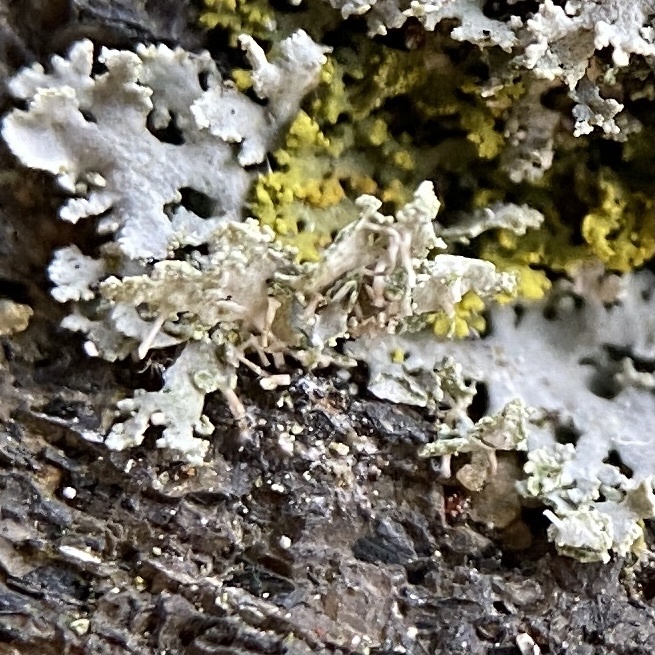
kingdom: Fungi
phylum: Ascomycota
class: Lecanoromycetes
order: Caliciales
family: Physciaceae
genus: Physcia
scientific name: Physcia thomsoniana
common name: Thomson's rosette lichen
